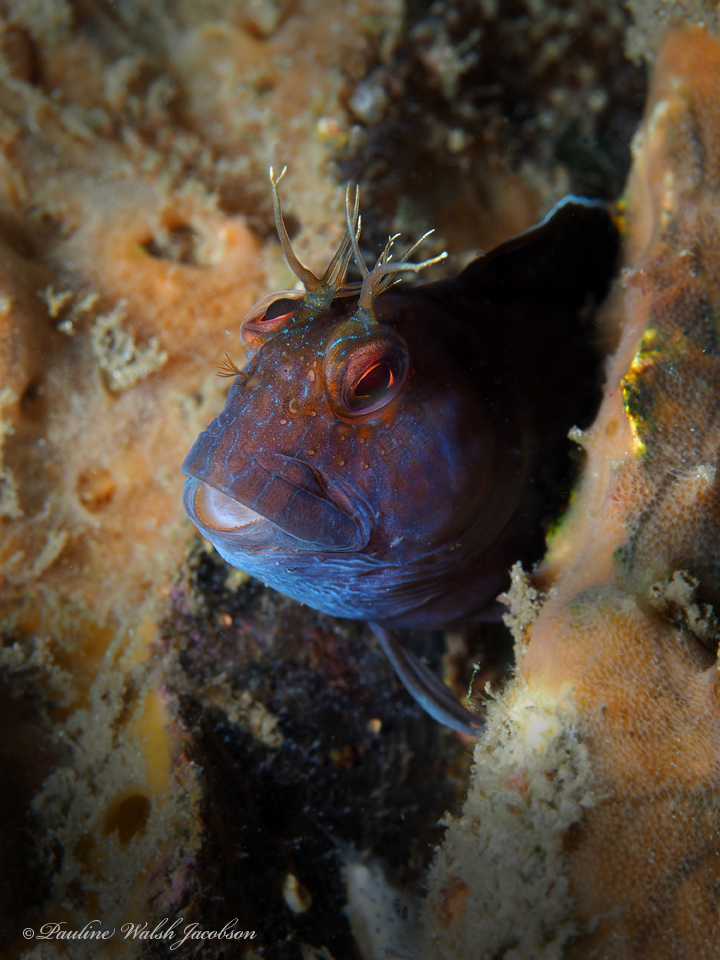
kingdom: Animalia
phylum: Chordata
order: Perciformes
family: Blenniidae
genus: Parablennius
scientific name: Parablennius marmoreus
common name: Seaweed blenny
